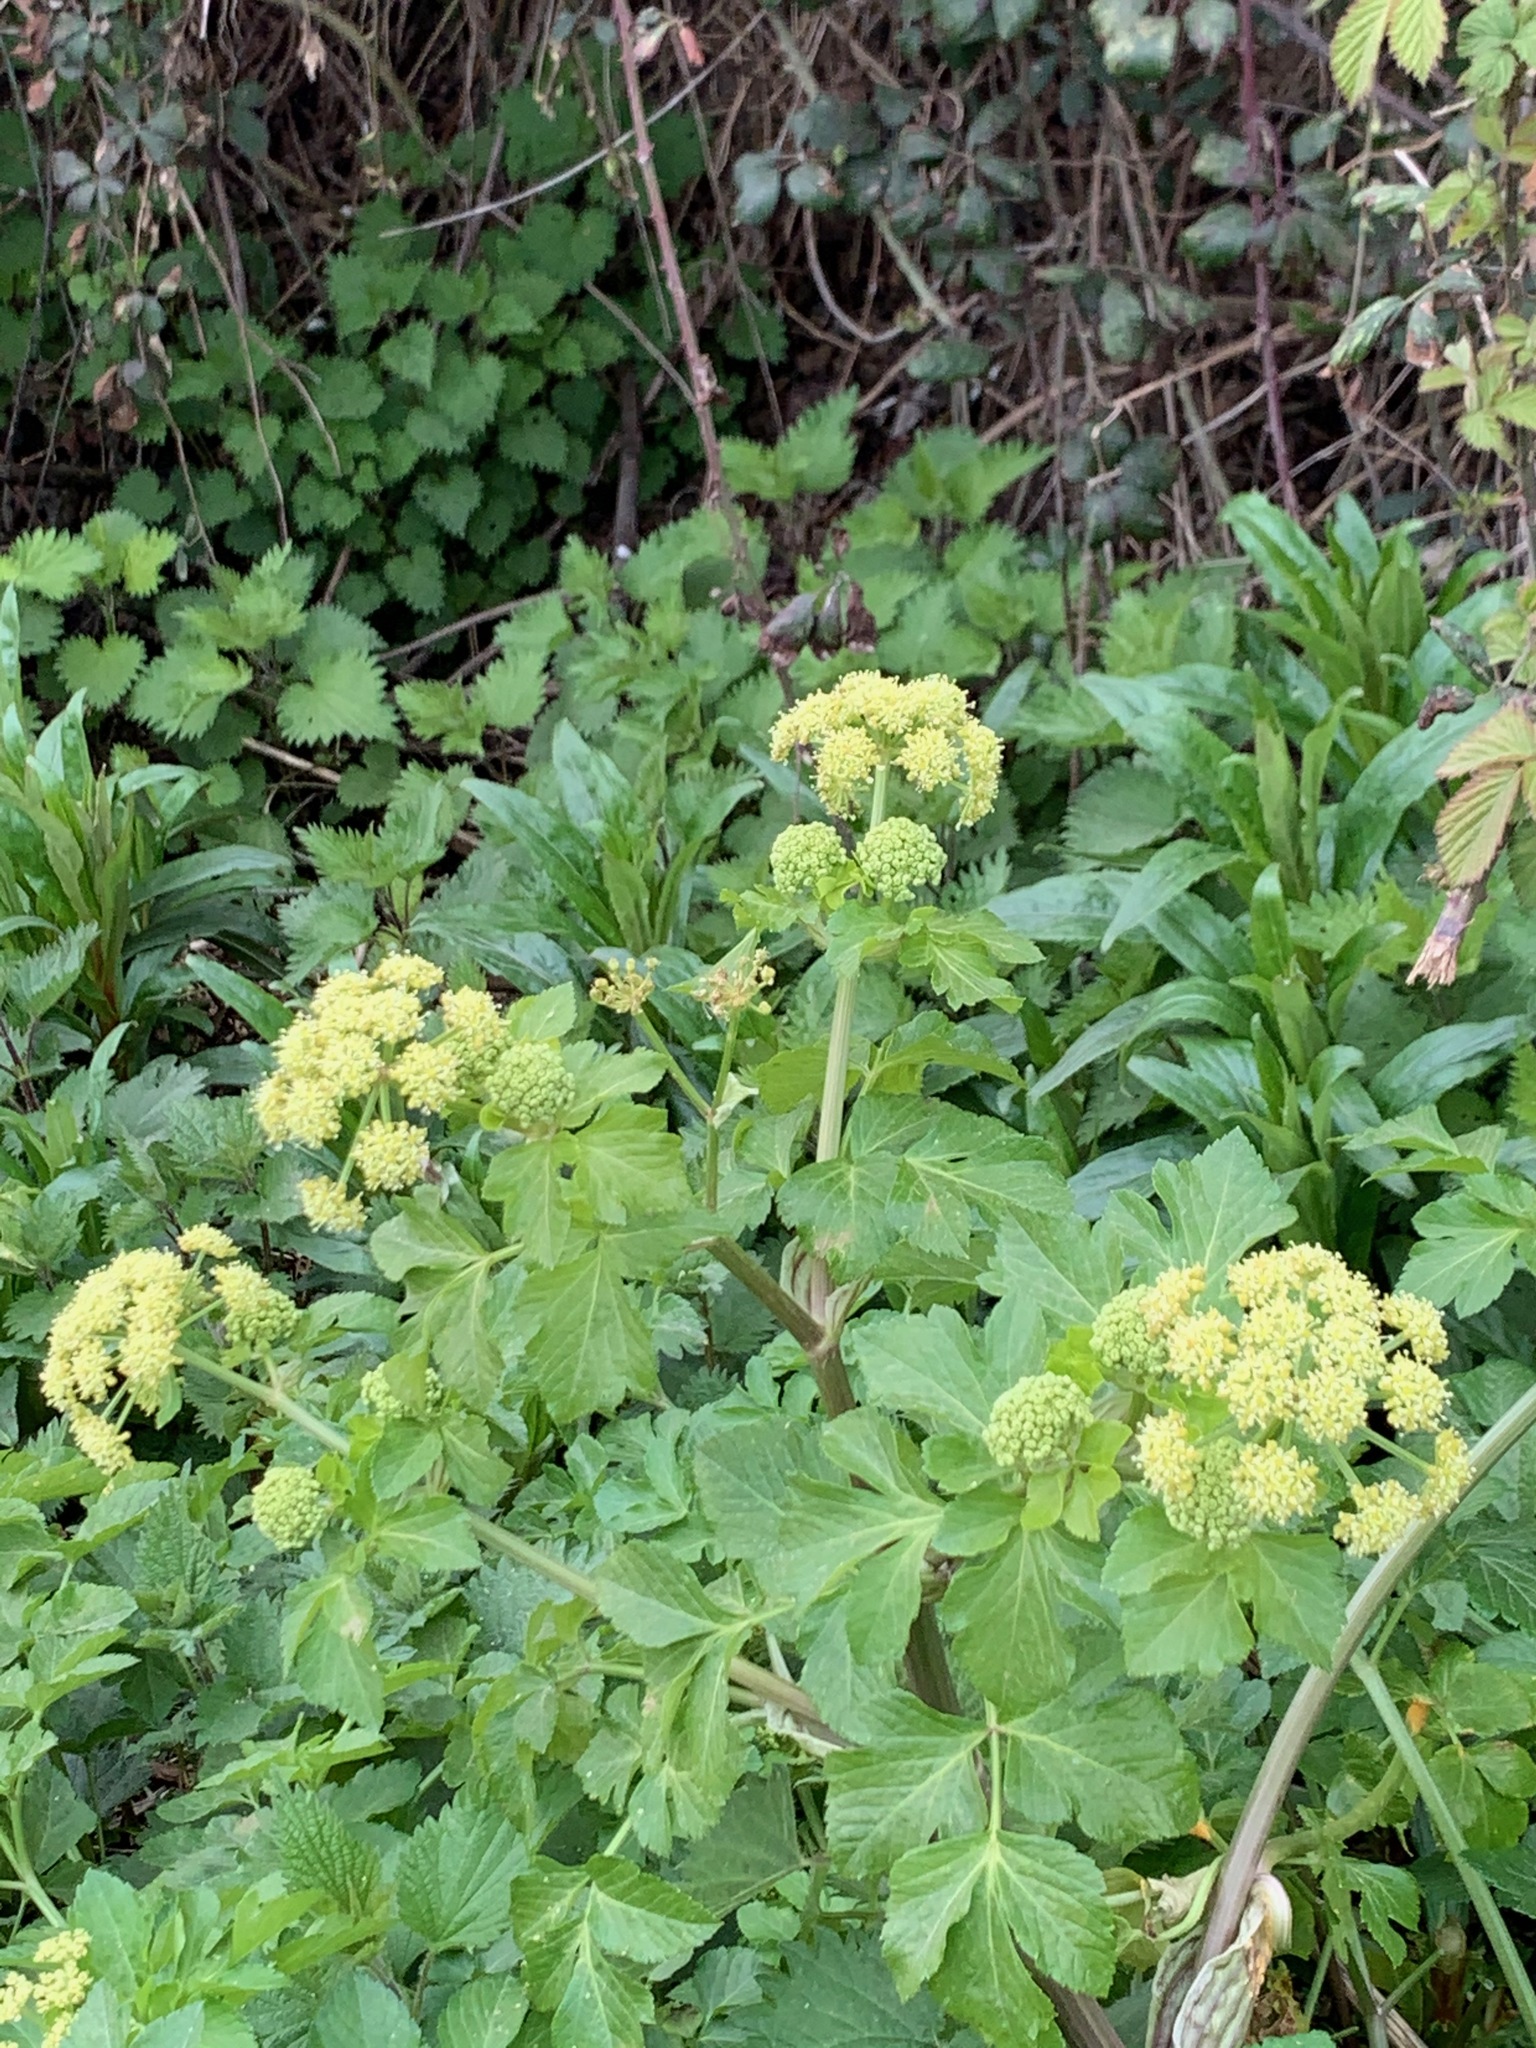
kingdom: Plantae
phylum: Tracheophyta
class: Magnoliopsida
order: Apiales
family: Apiaceae
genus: Smyrnium
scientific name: Smyrnium olusatrum
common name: Alexanders
